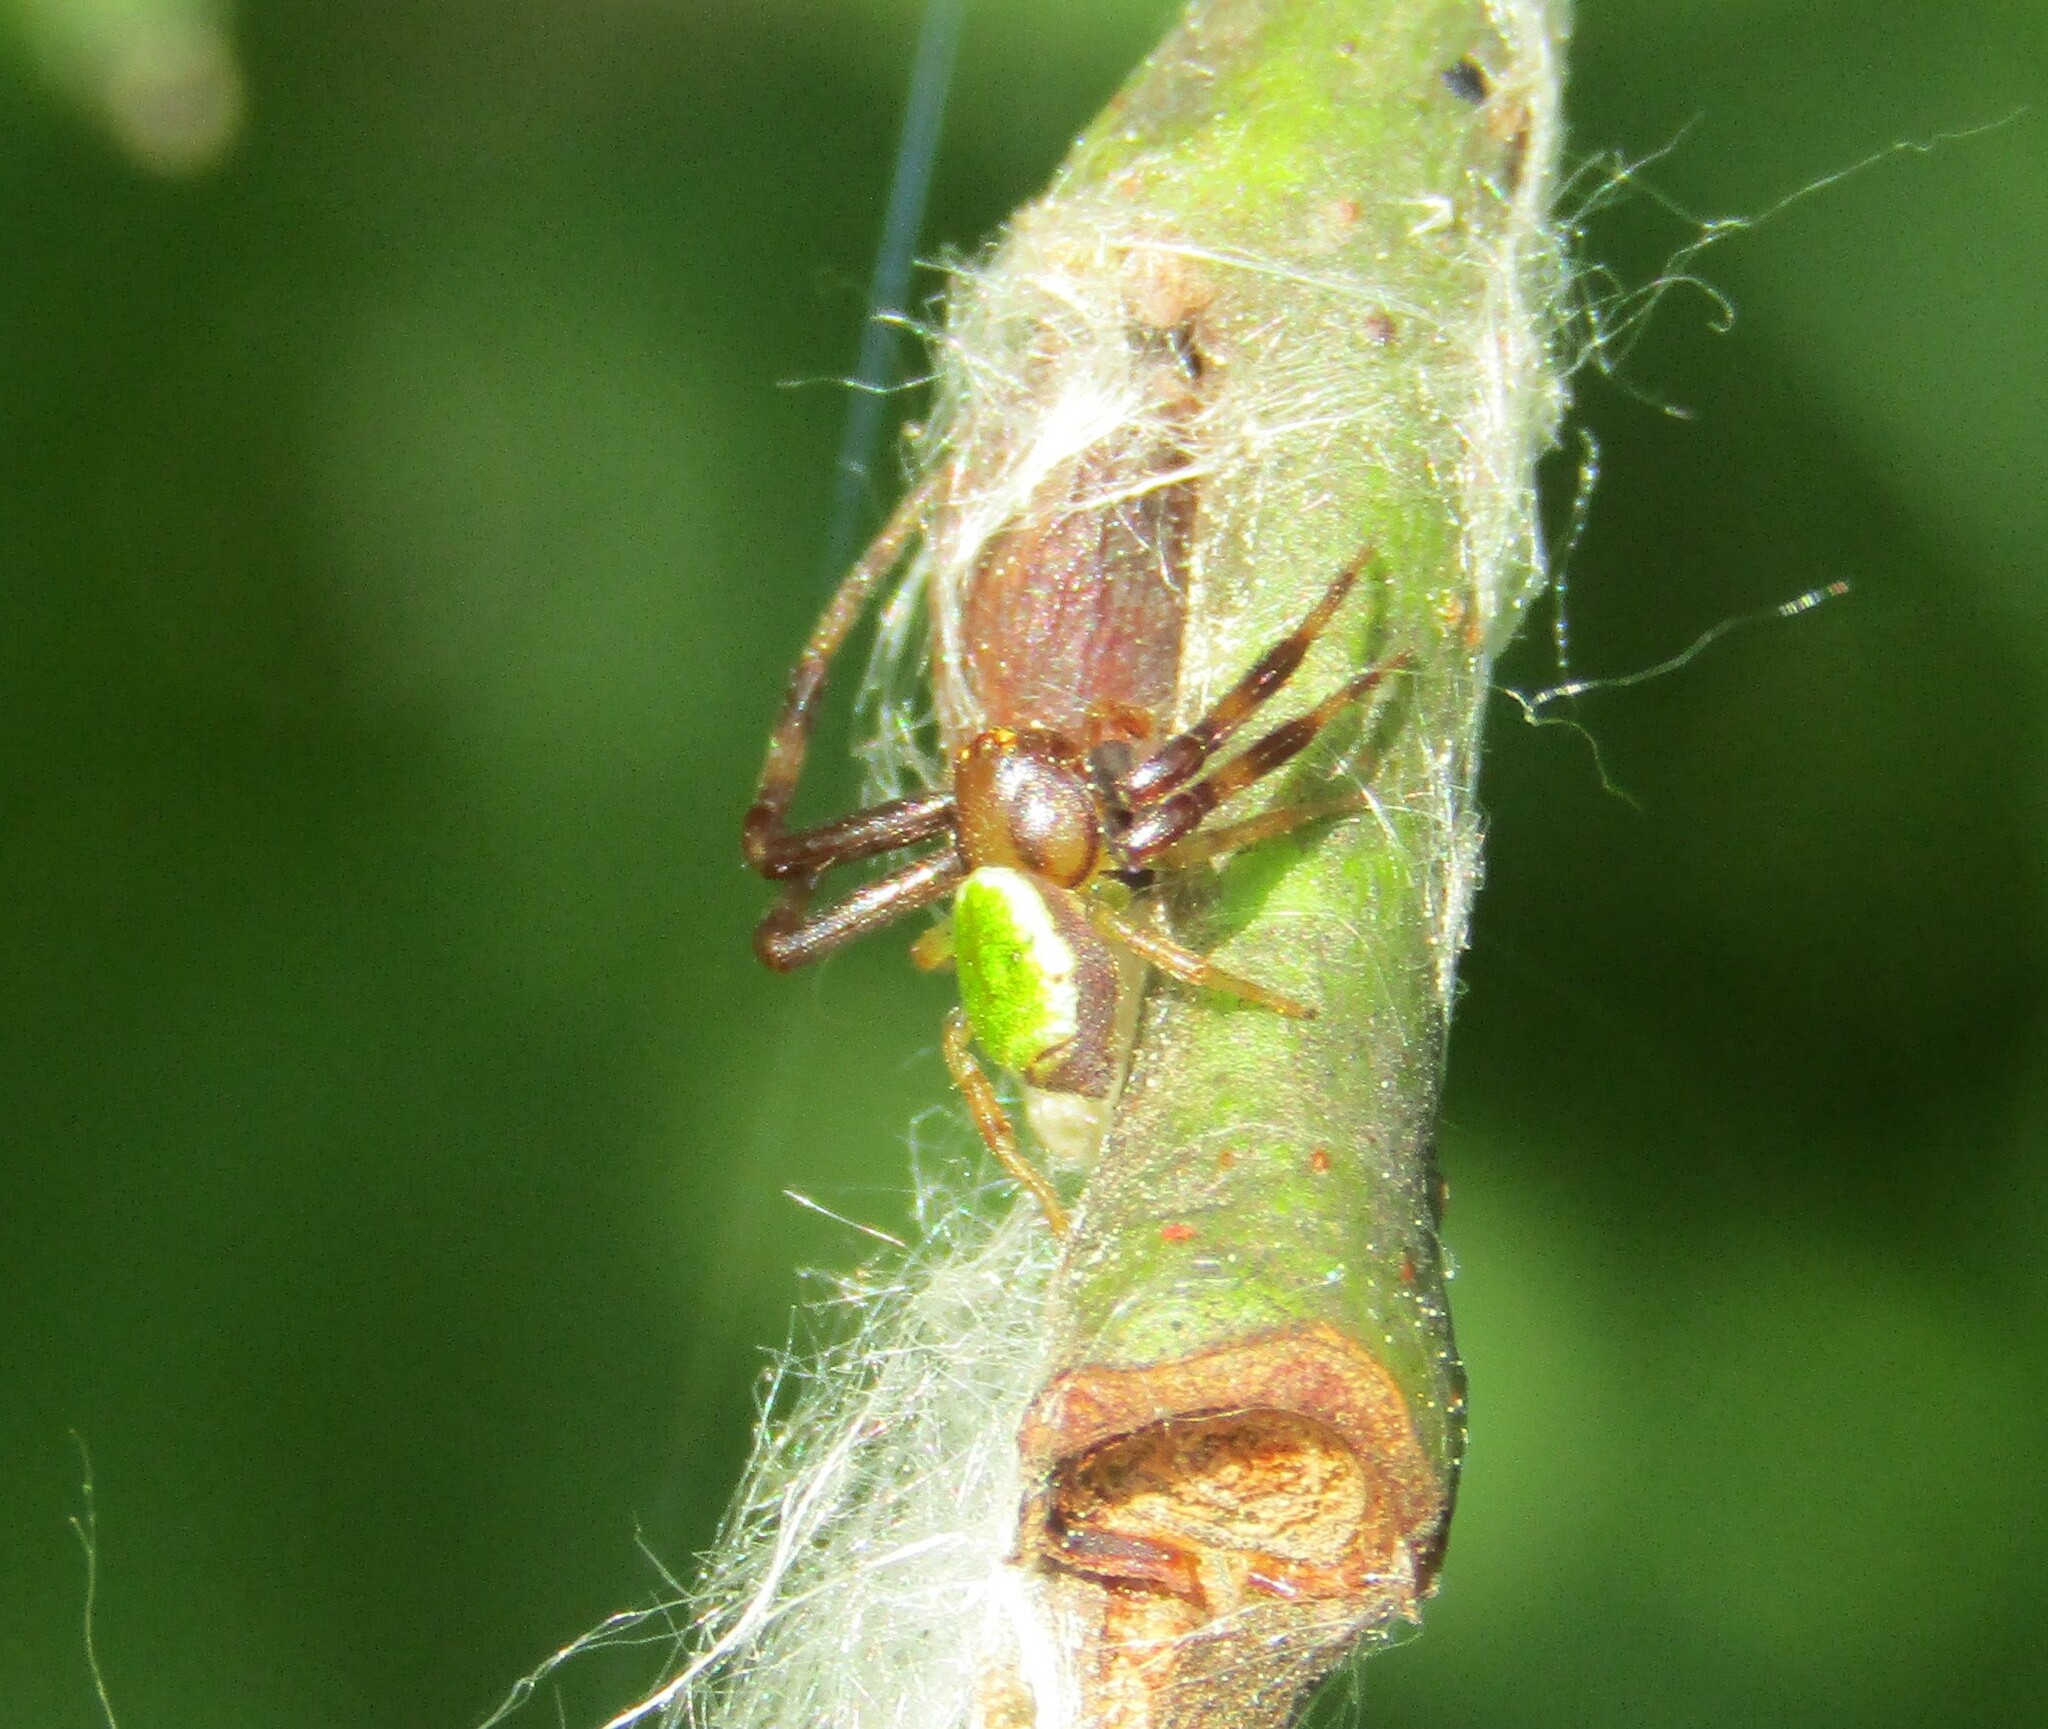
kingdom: Animalia
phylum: Arthropoda
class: Arachnida
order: Araneae
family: Thomisidae
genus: Ebrechtella
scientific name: Ebrechtella tricuspidata
